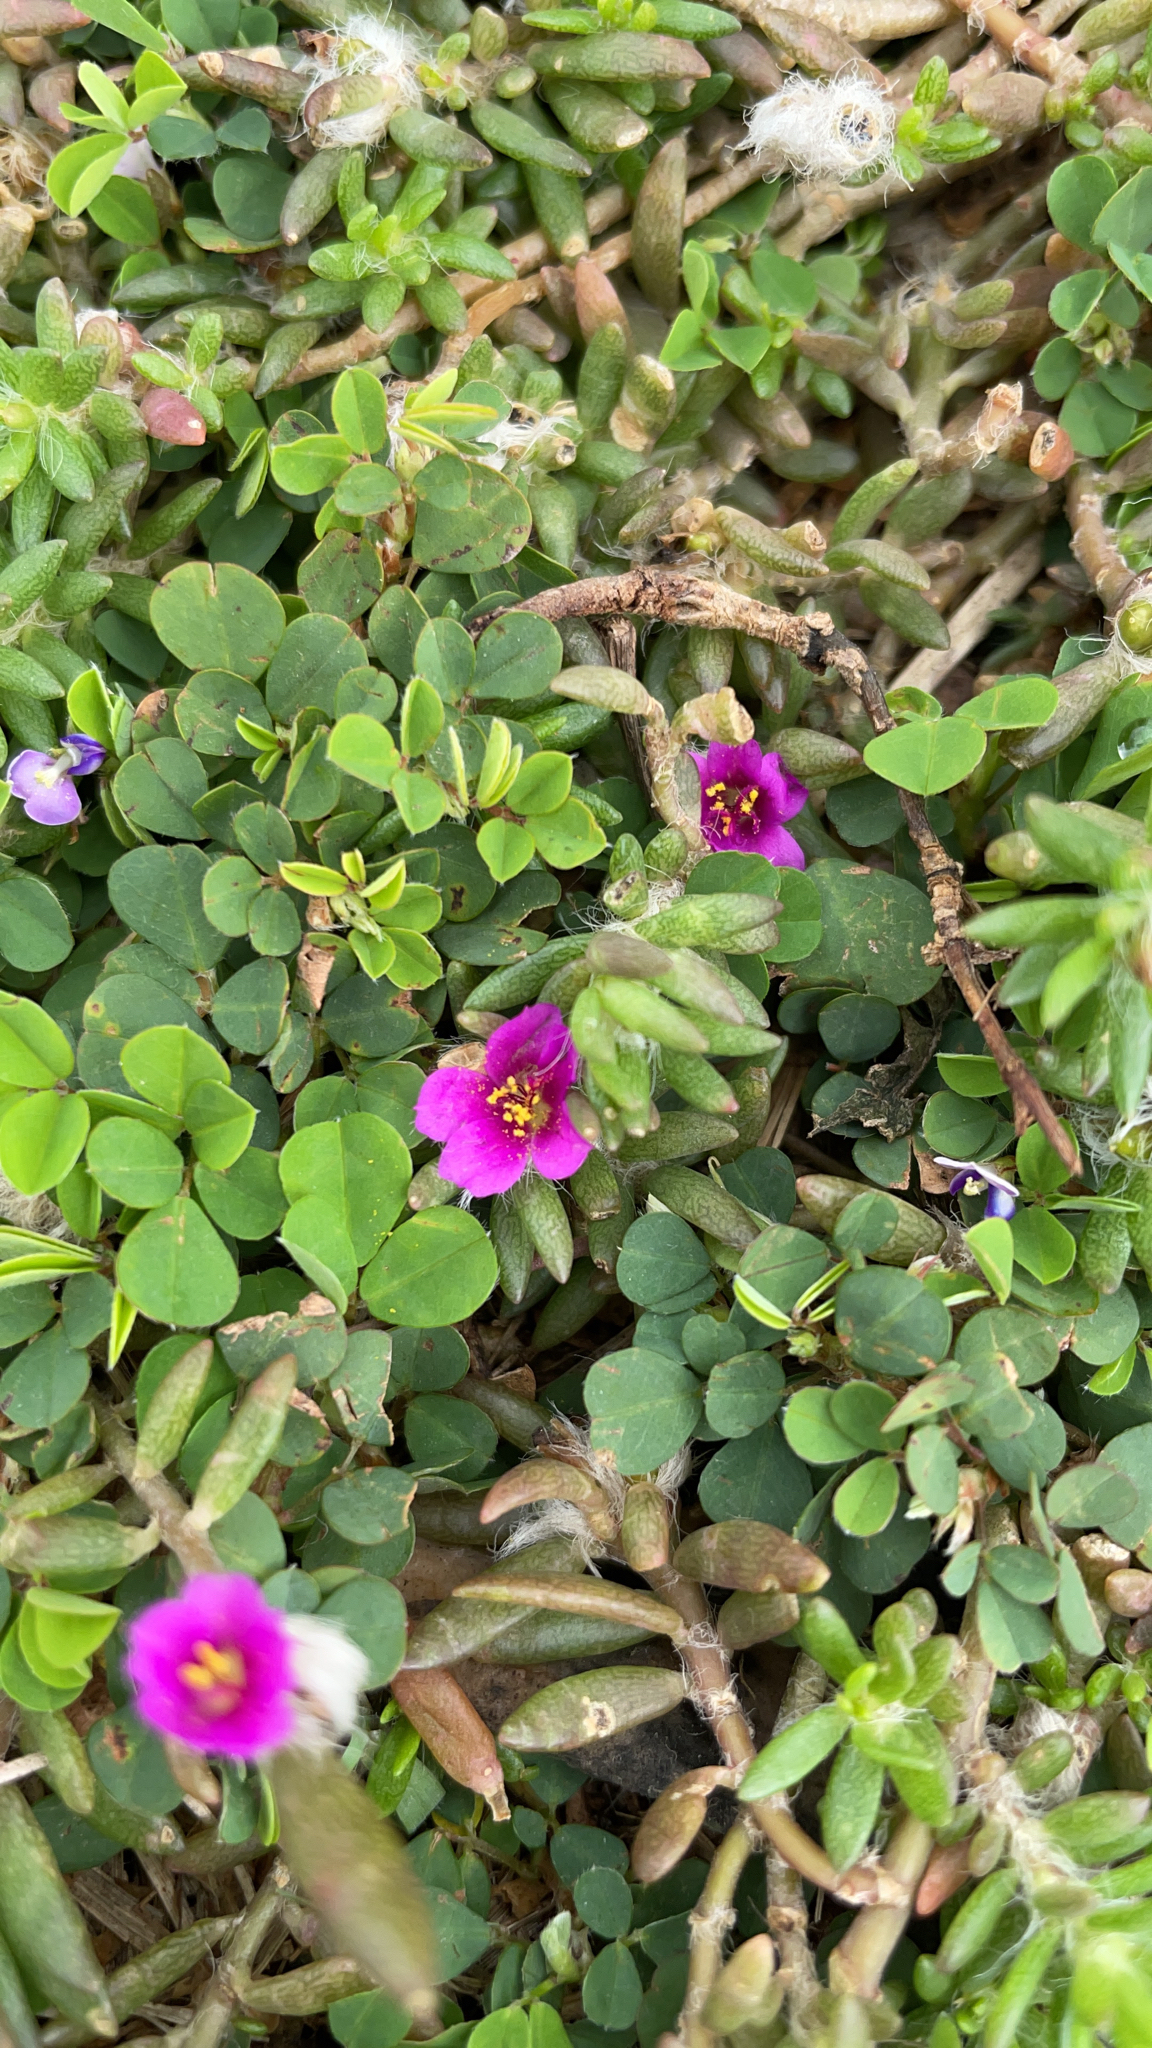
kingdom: Plantae
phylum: Tracheophyta
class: Magnoliopsida
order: Caryophyllales
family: Portulacaceae
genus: Portulaca
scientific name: Portulaca pilosa
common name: Kiss me quick
